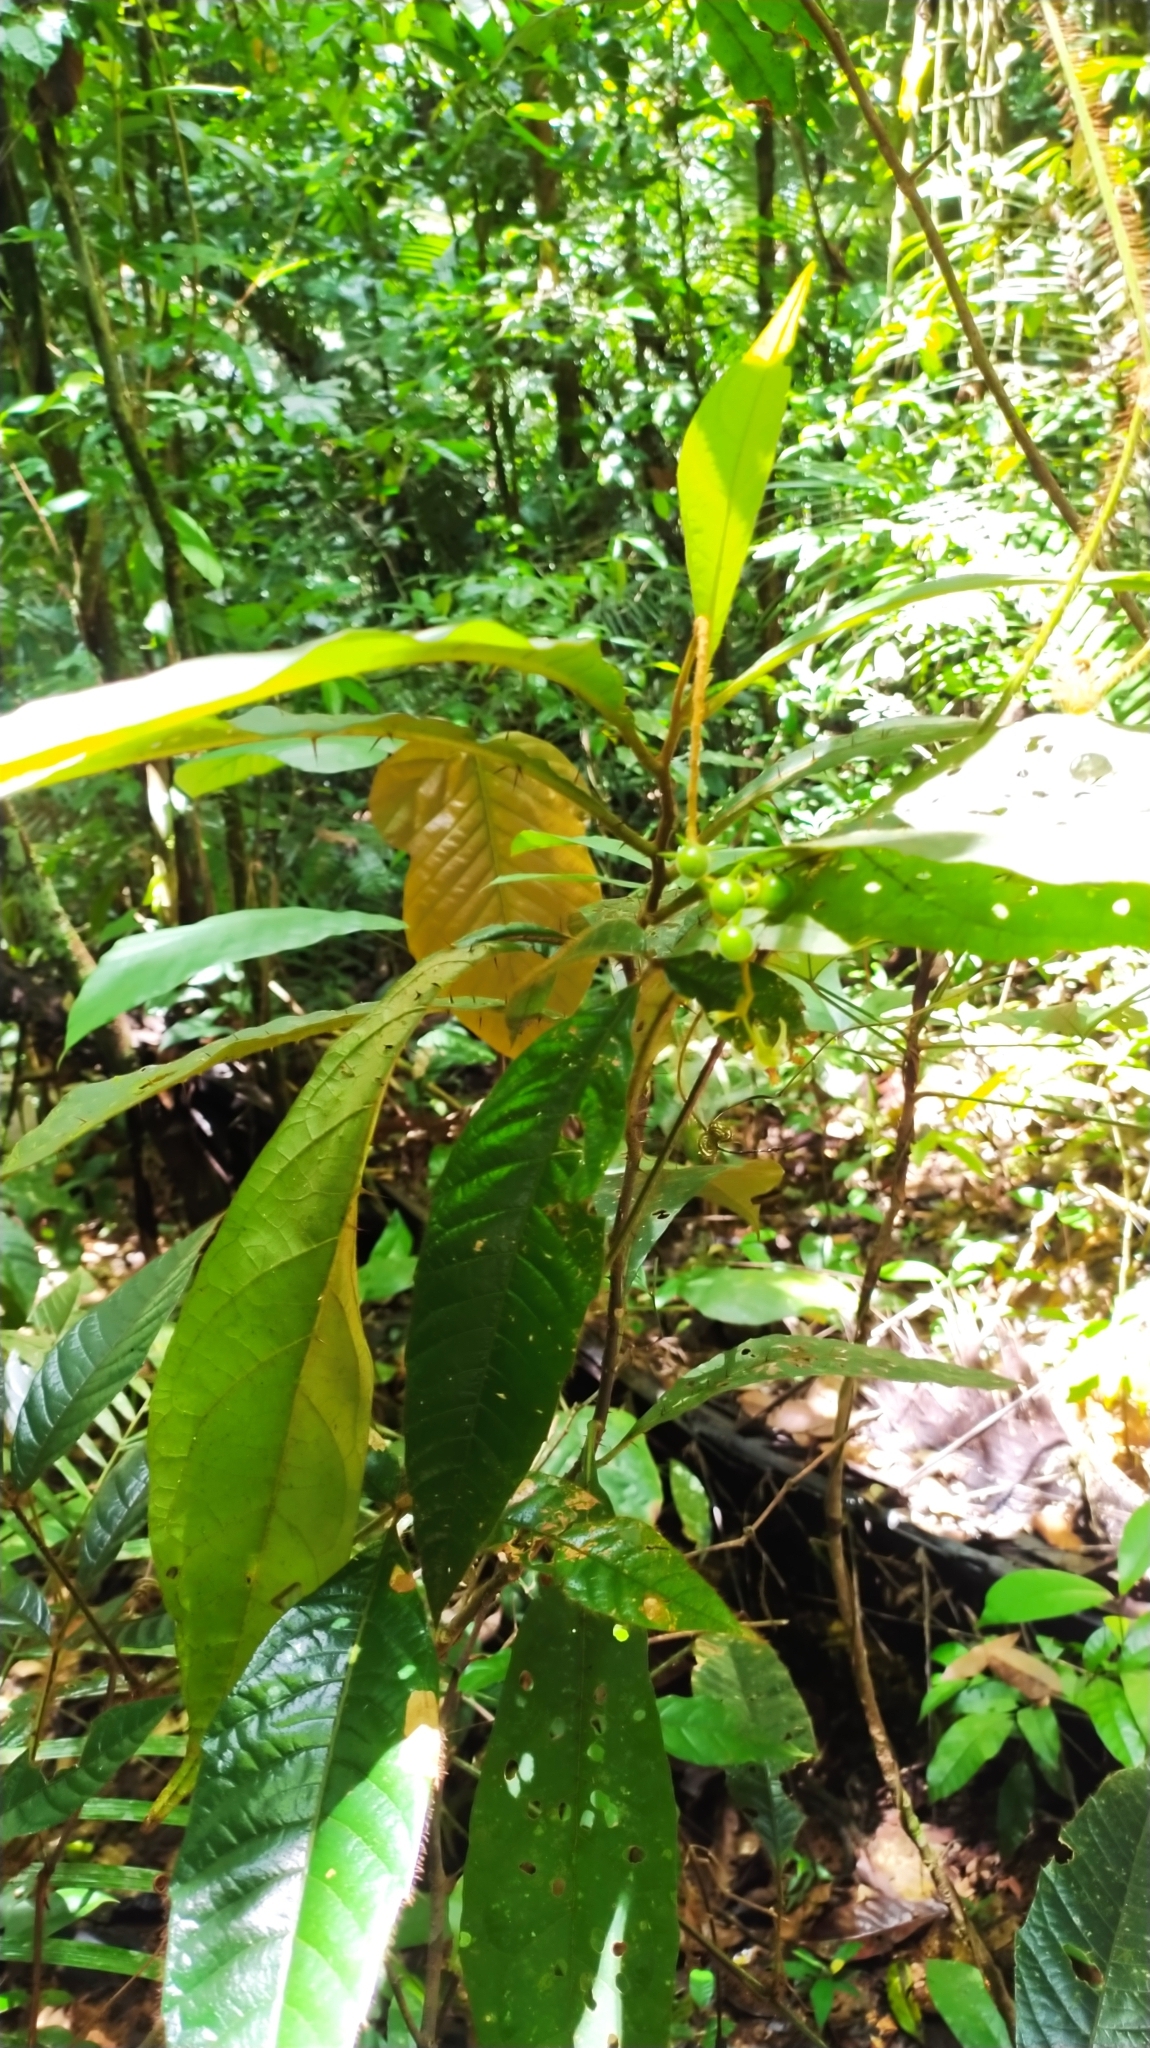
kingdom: Plantae
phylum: Tracheophyta
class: Magnoliopsida
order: Solanales
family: Solanaceae
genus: Solanum
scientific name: Solanum fulvidum
